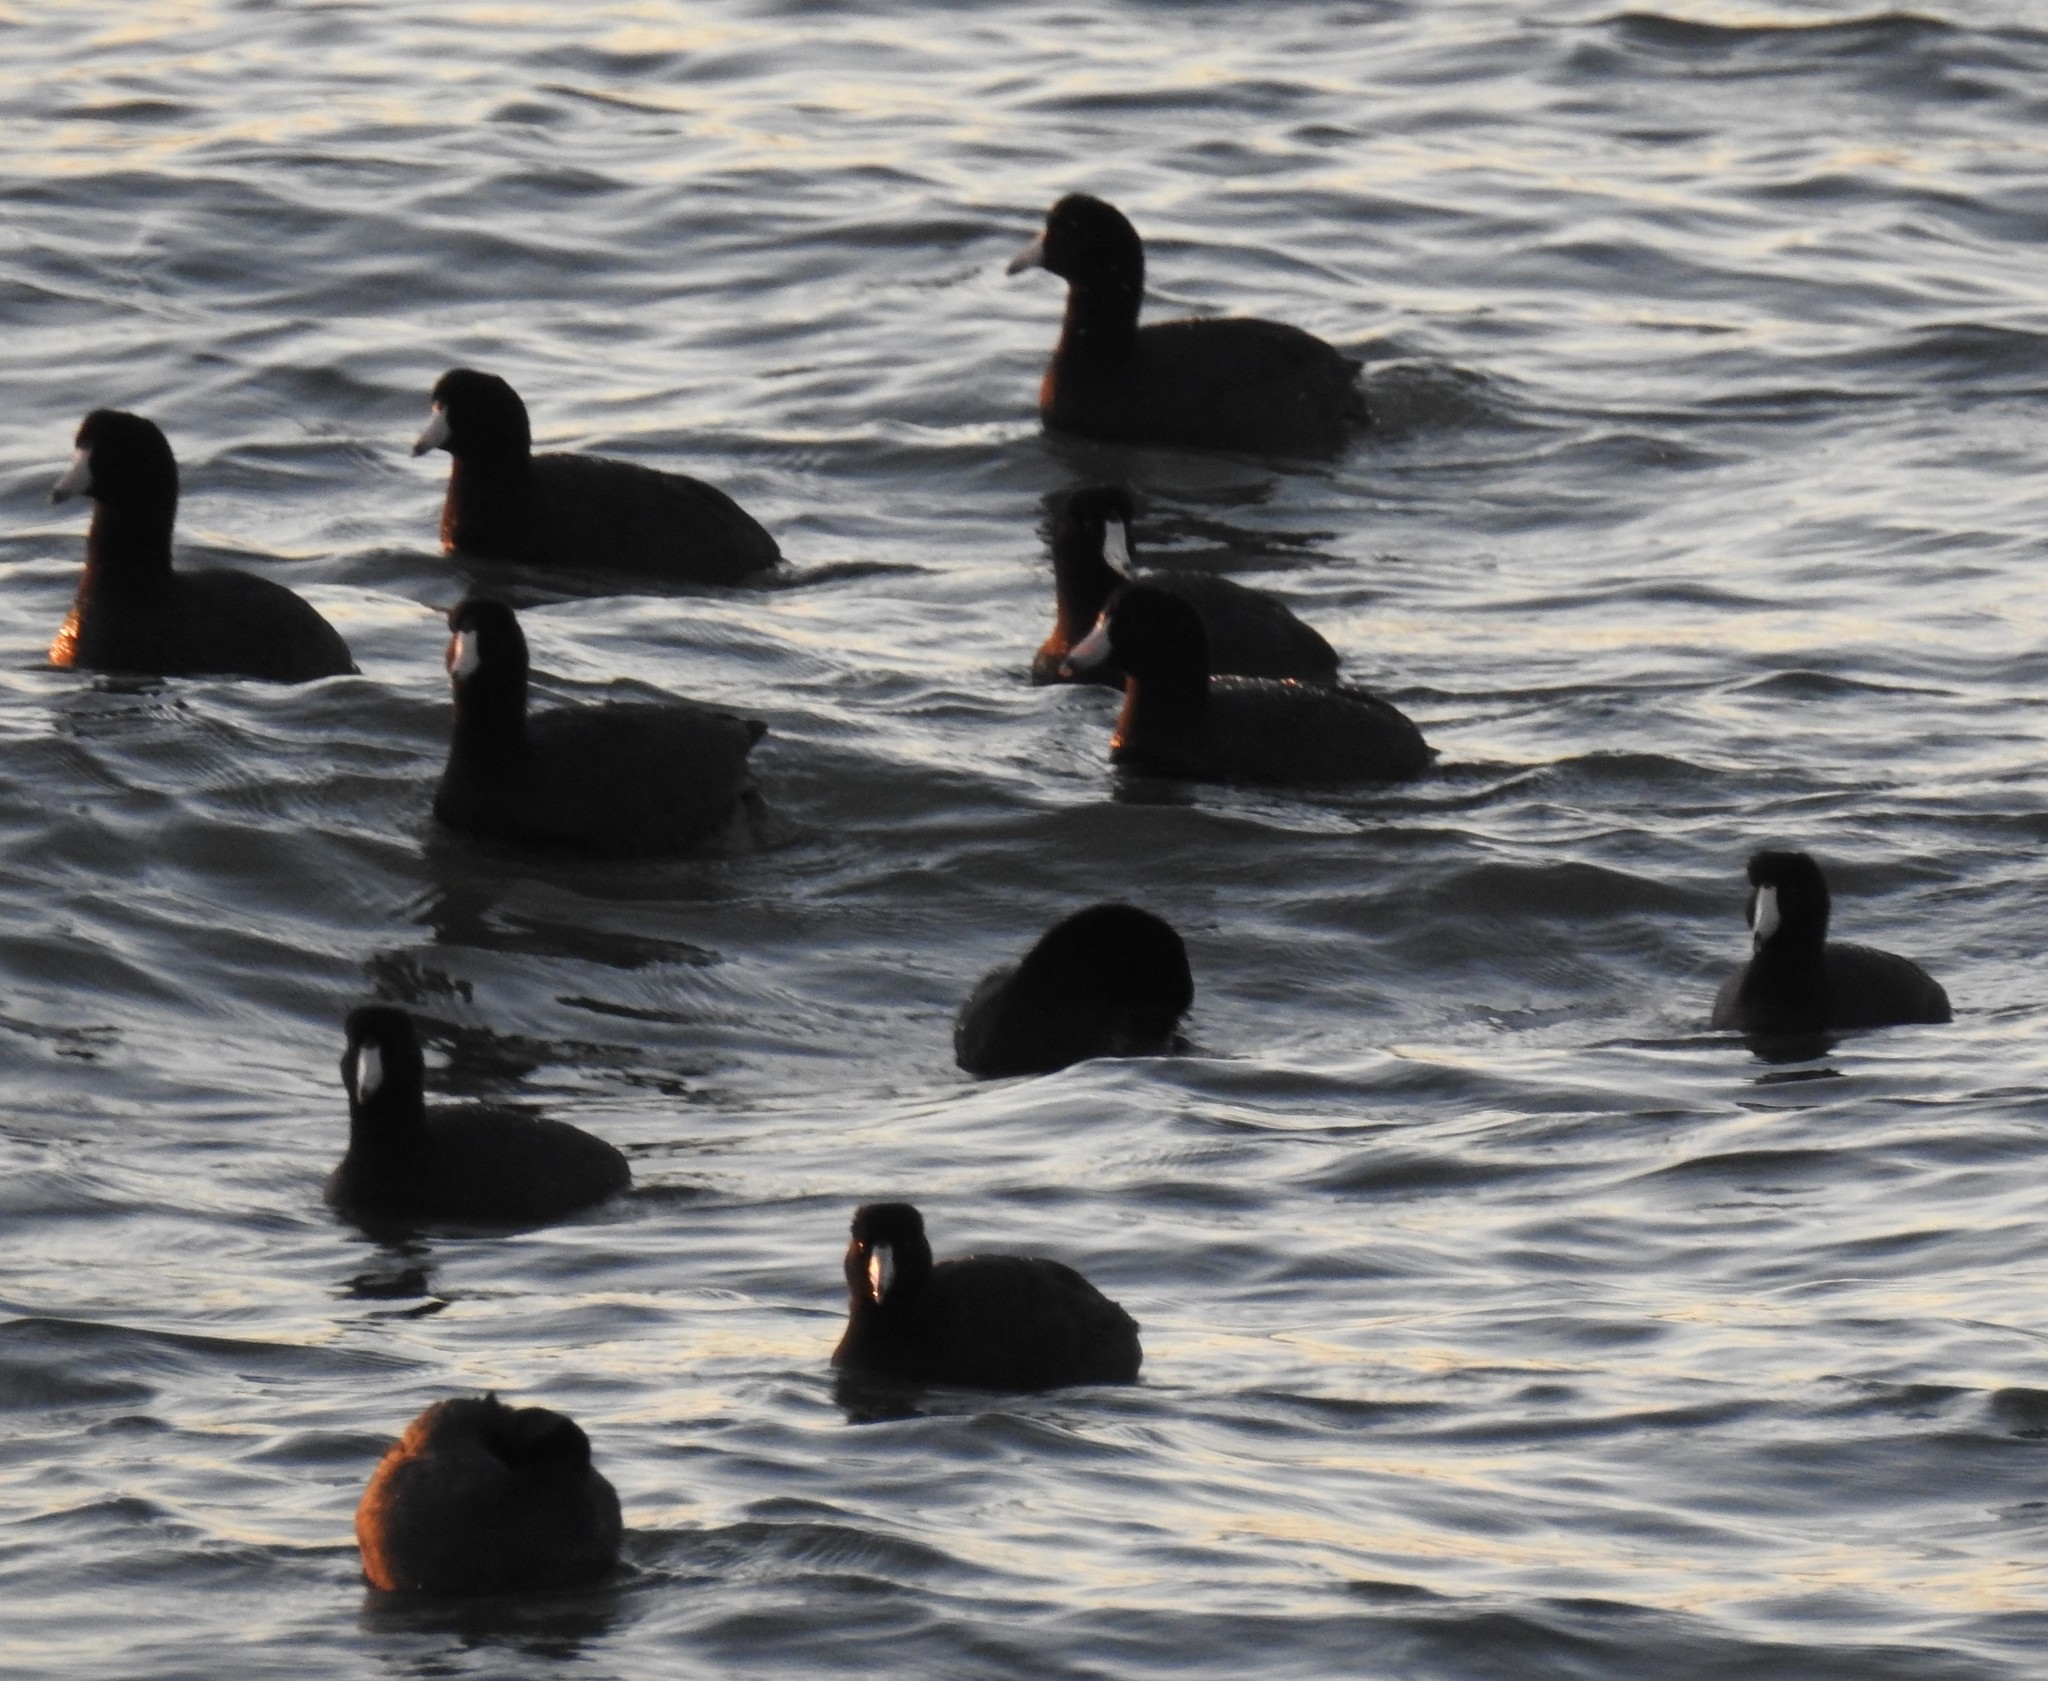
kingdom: Animalia
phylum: Chordata
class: Aves
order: Gruiformes
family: Rallidae
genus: Fulica
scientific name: Fulica americana
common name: American coot
